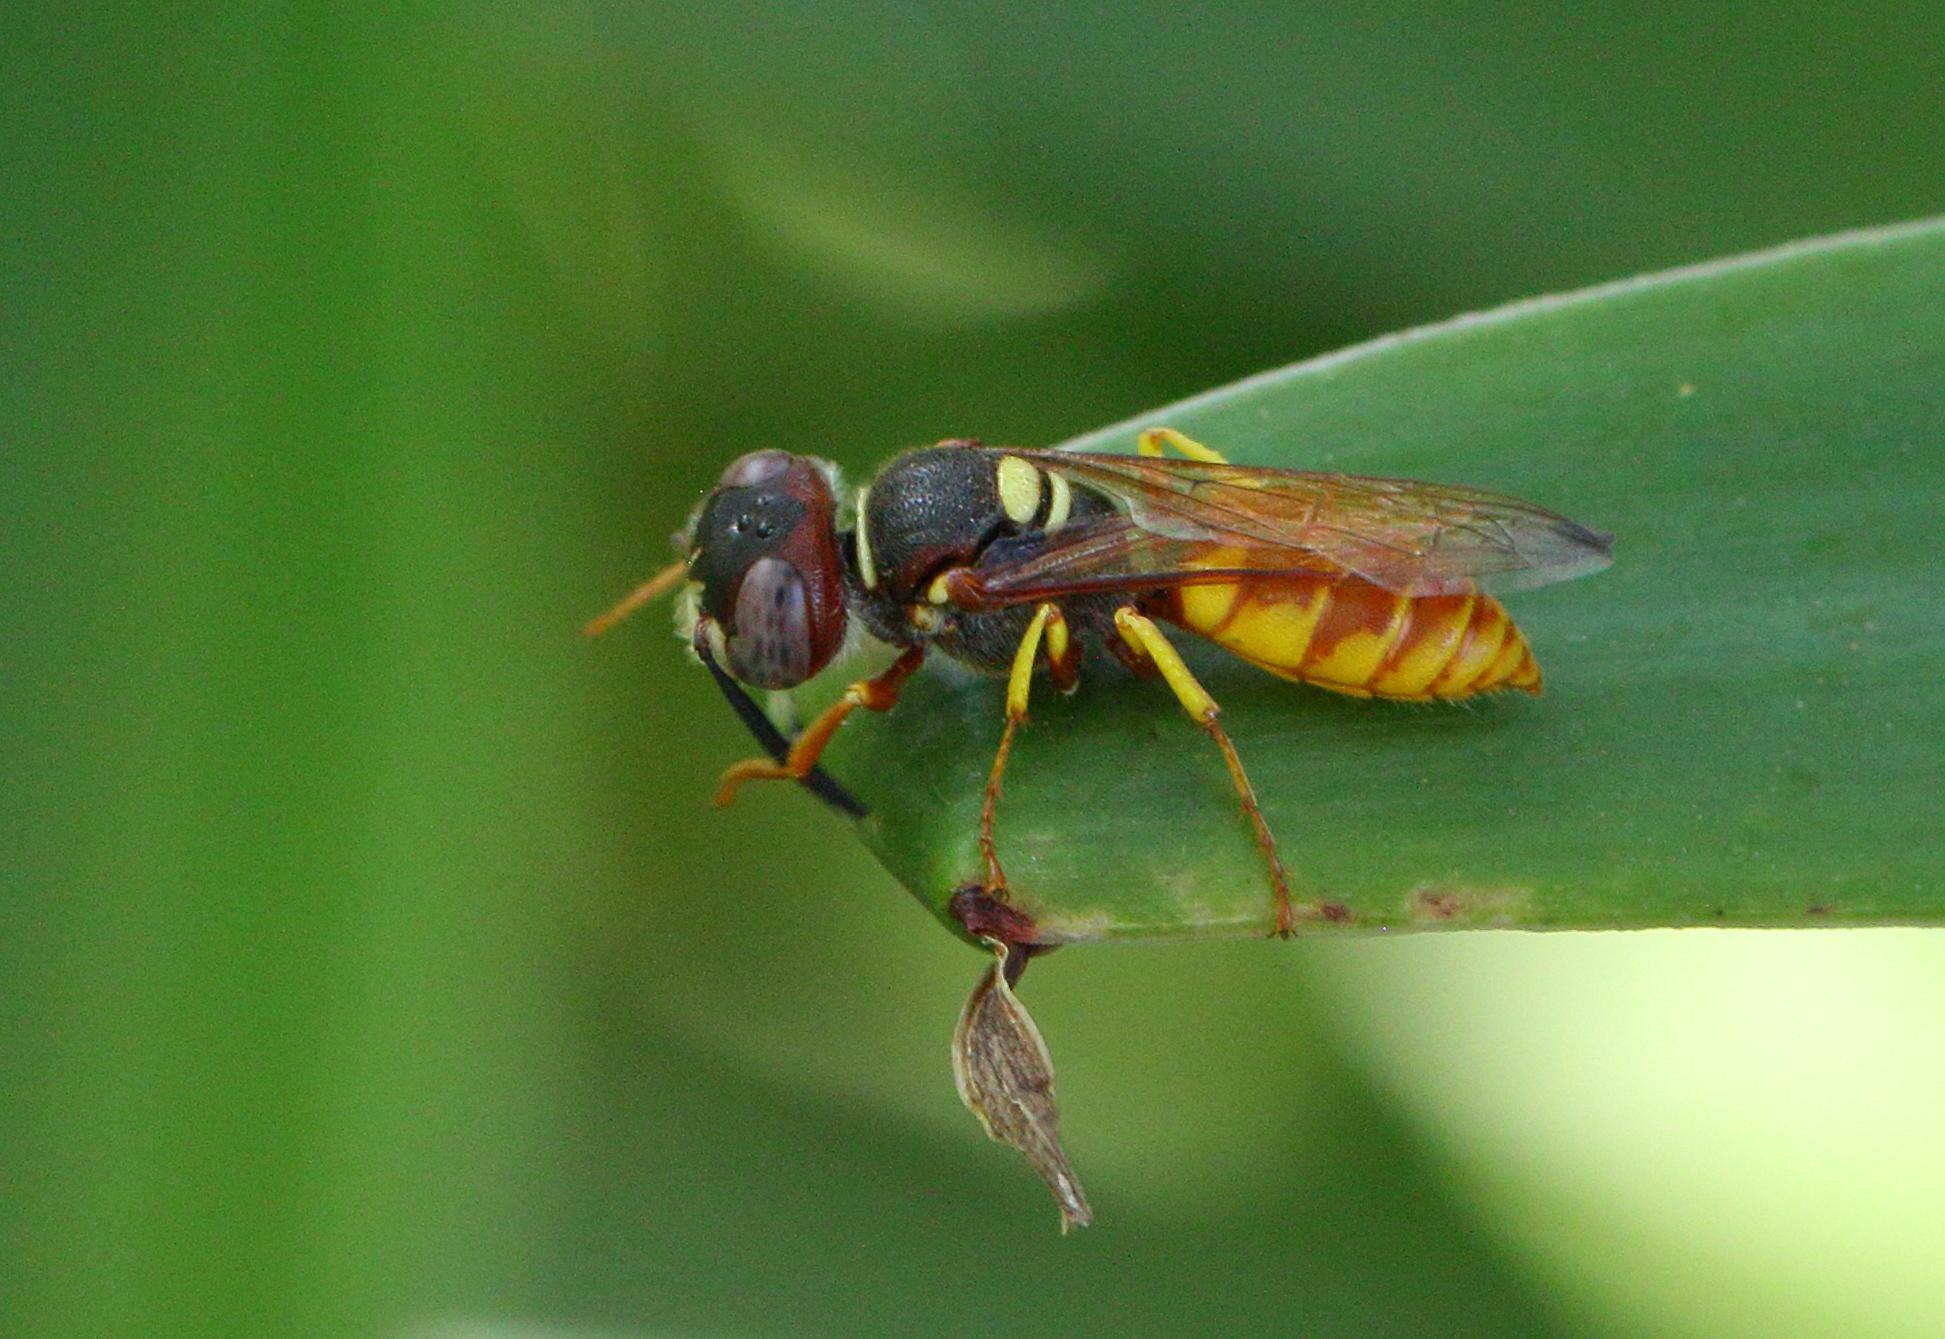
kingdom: Animalia
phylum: Arthropoda
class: Insecta
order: Hymenoptera
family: Crabronidae
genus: Philanthus
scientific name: Philanthus triangulum
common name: Bee wolf
